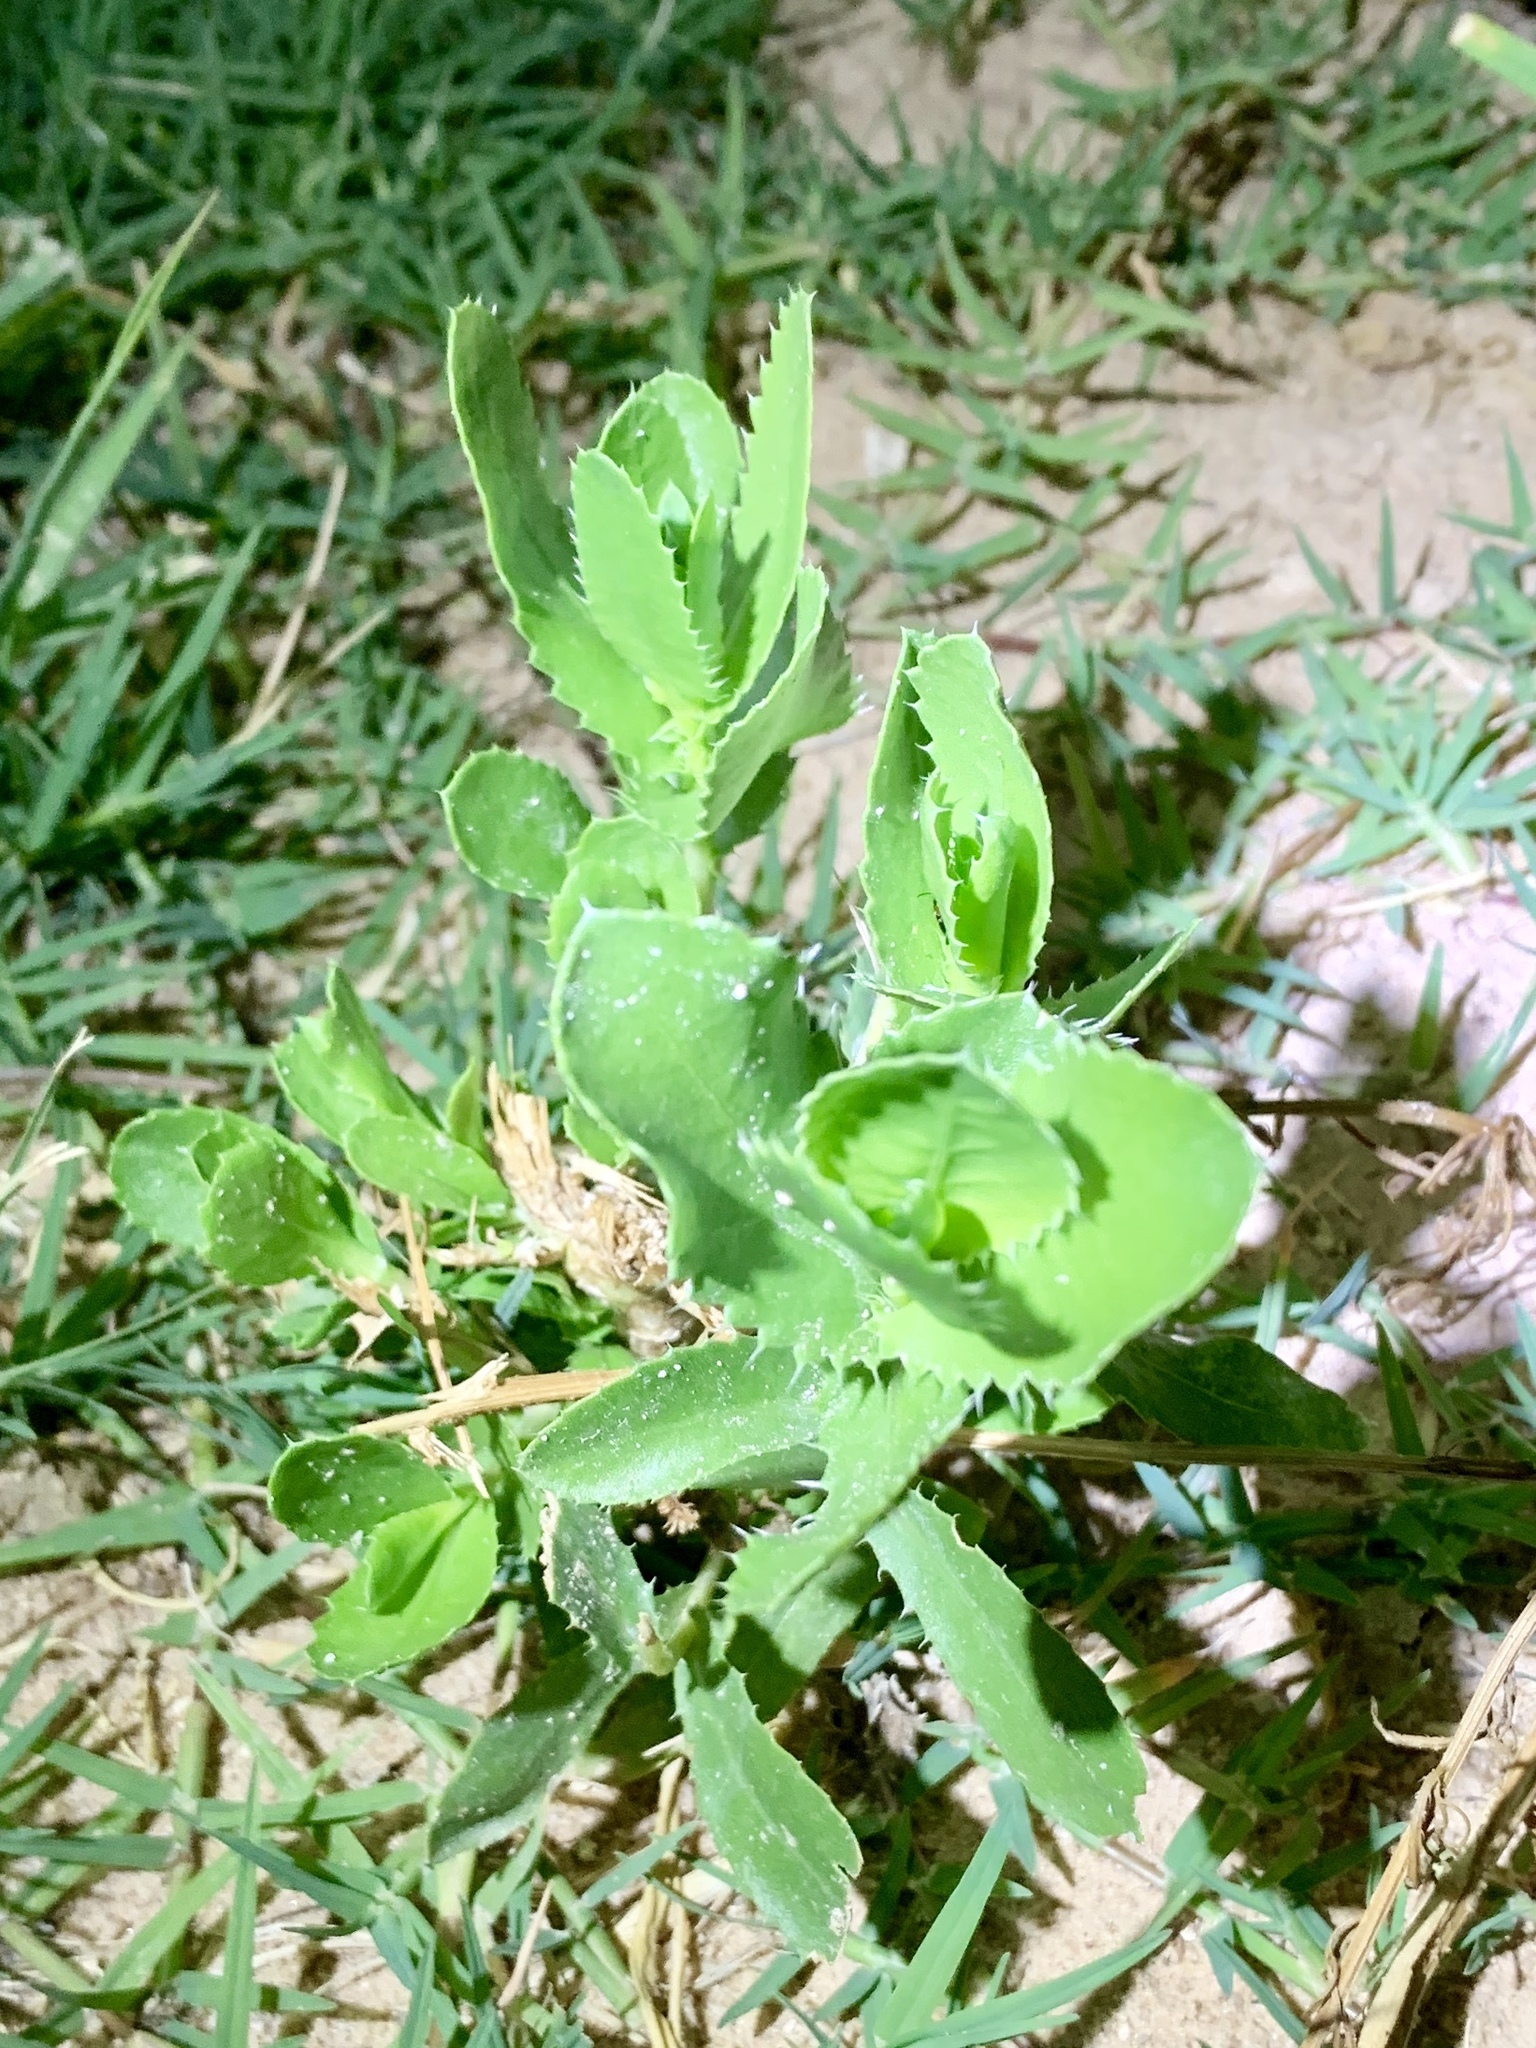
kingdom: Plantae
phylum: Tracheophyta
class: Magnoliopsida
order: Asterales
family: Asteraceae
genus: Grindelia
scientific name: Grindelia ciliata
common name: Goldenweed
